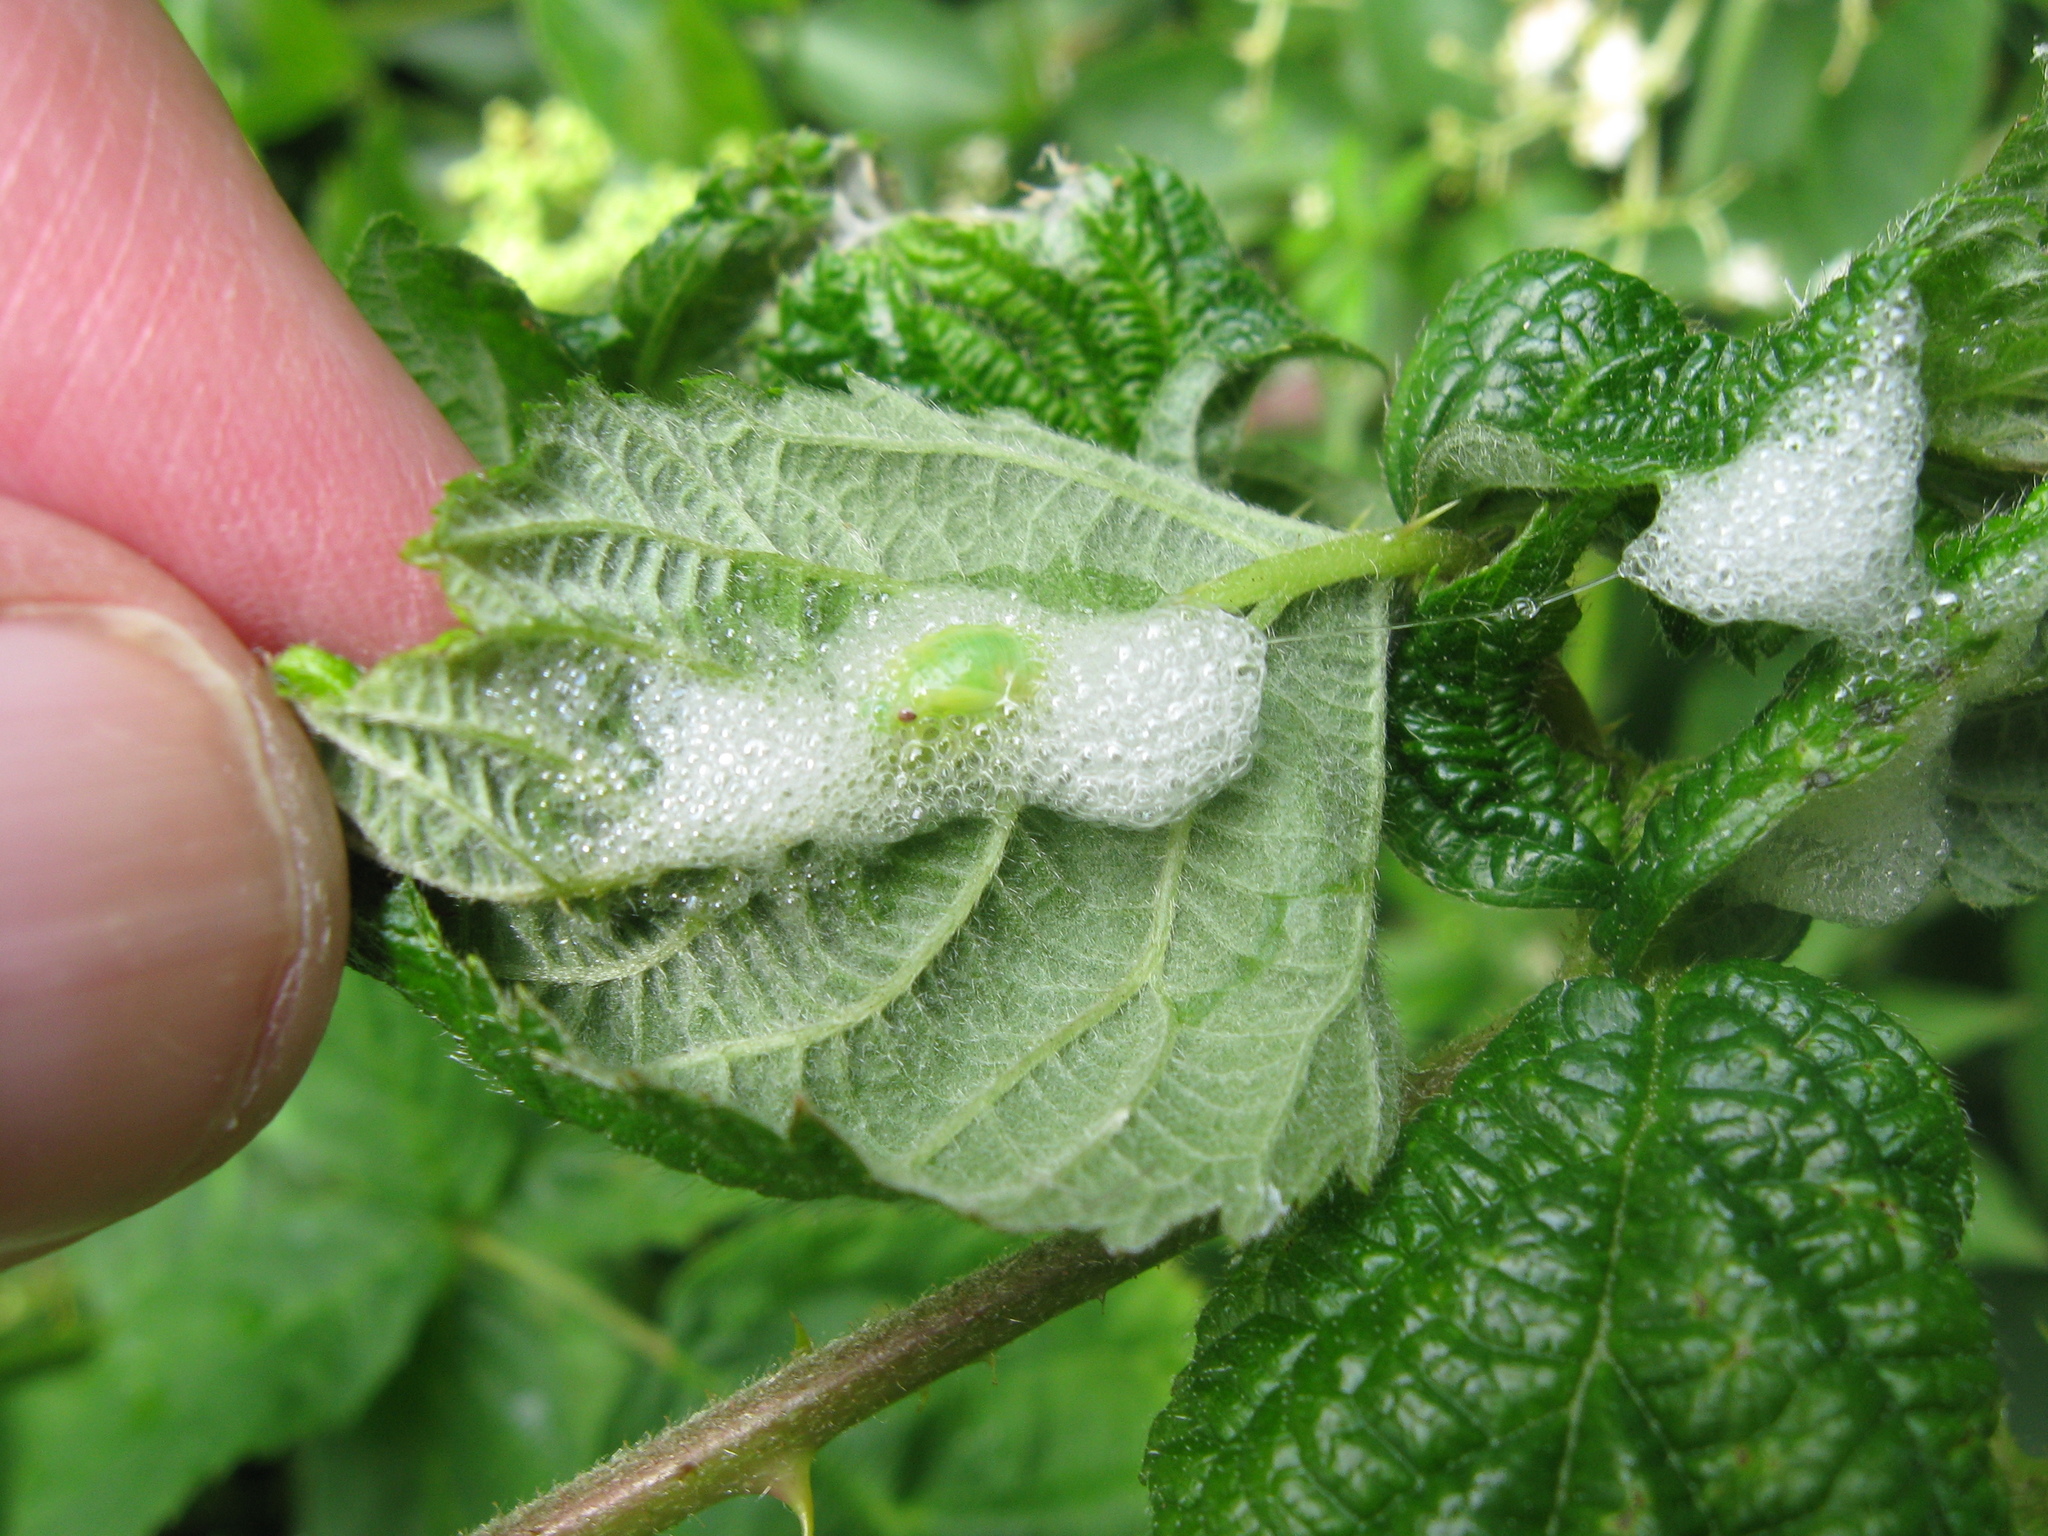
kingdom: Animalia
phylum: Arthropoda
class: Insecta
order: Hemiptera
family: Aphrophoridae
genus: Philaenus
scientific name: Philaenus spumarius
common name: Meadow spittlebug
